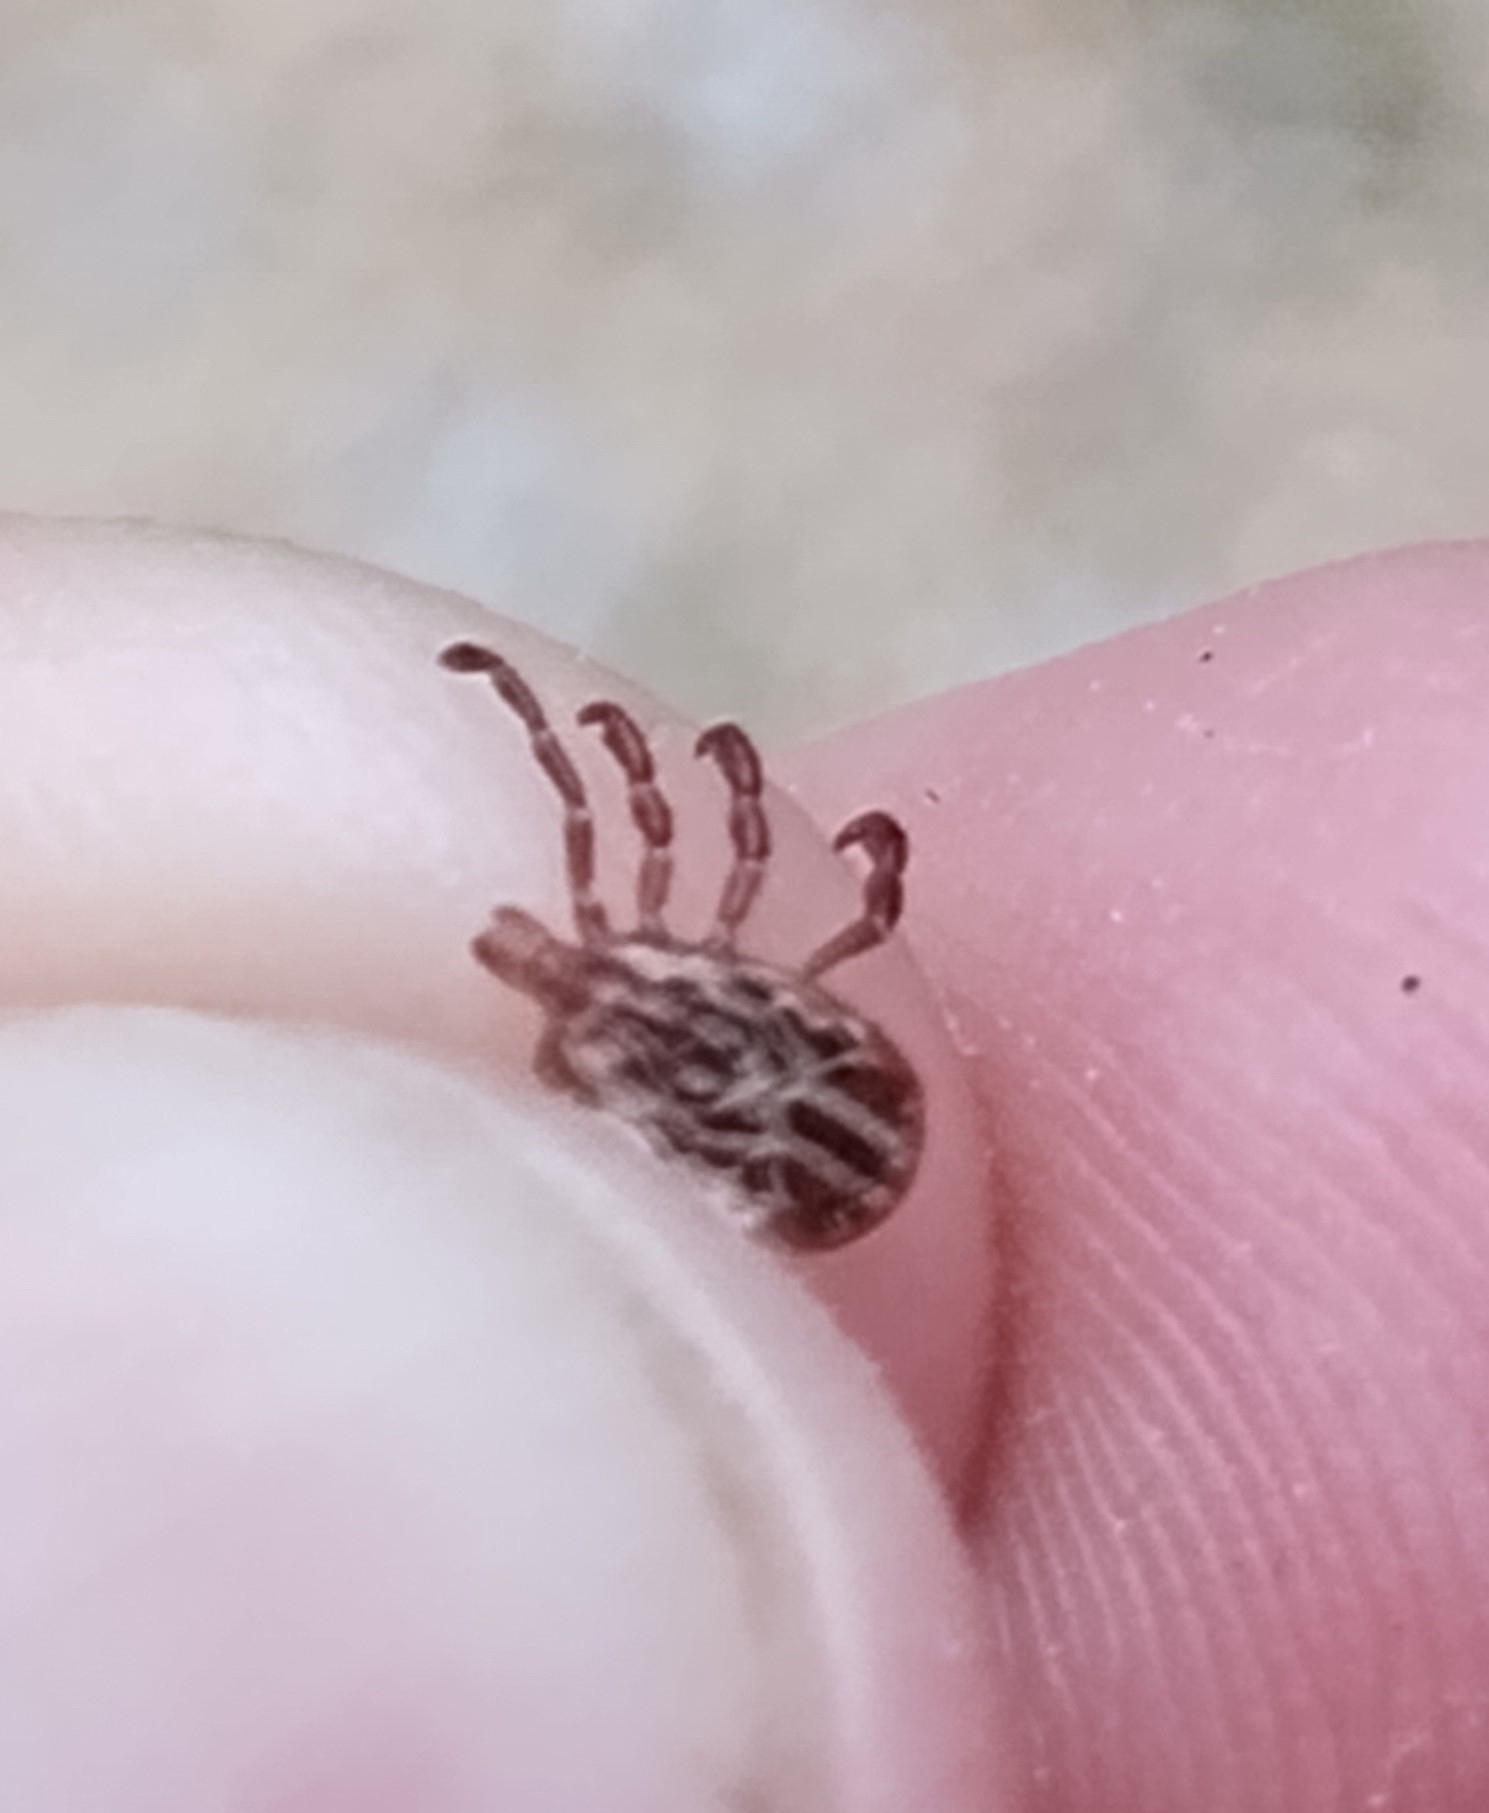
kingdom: Animalia
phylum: Arthropoda
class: Arachnida
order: Ixodida
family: Ixodidae
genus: Amblyomma
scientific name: Amblyomma maculatum
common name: Gulf coast tick
